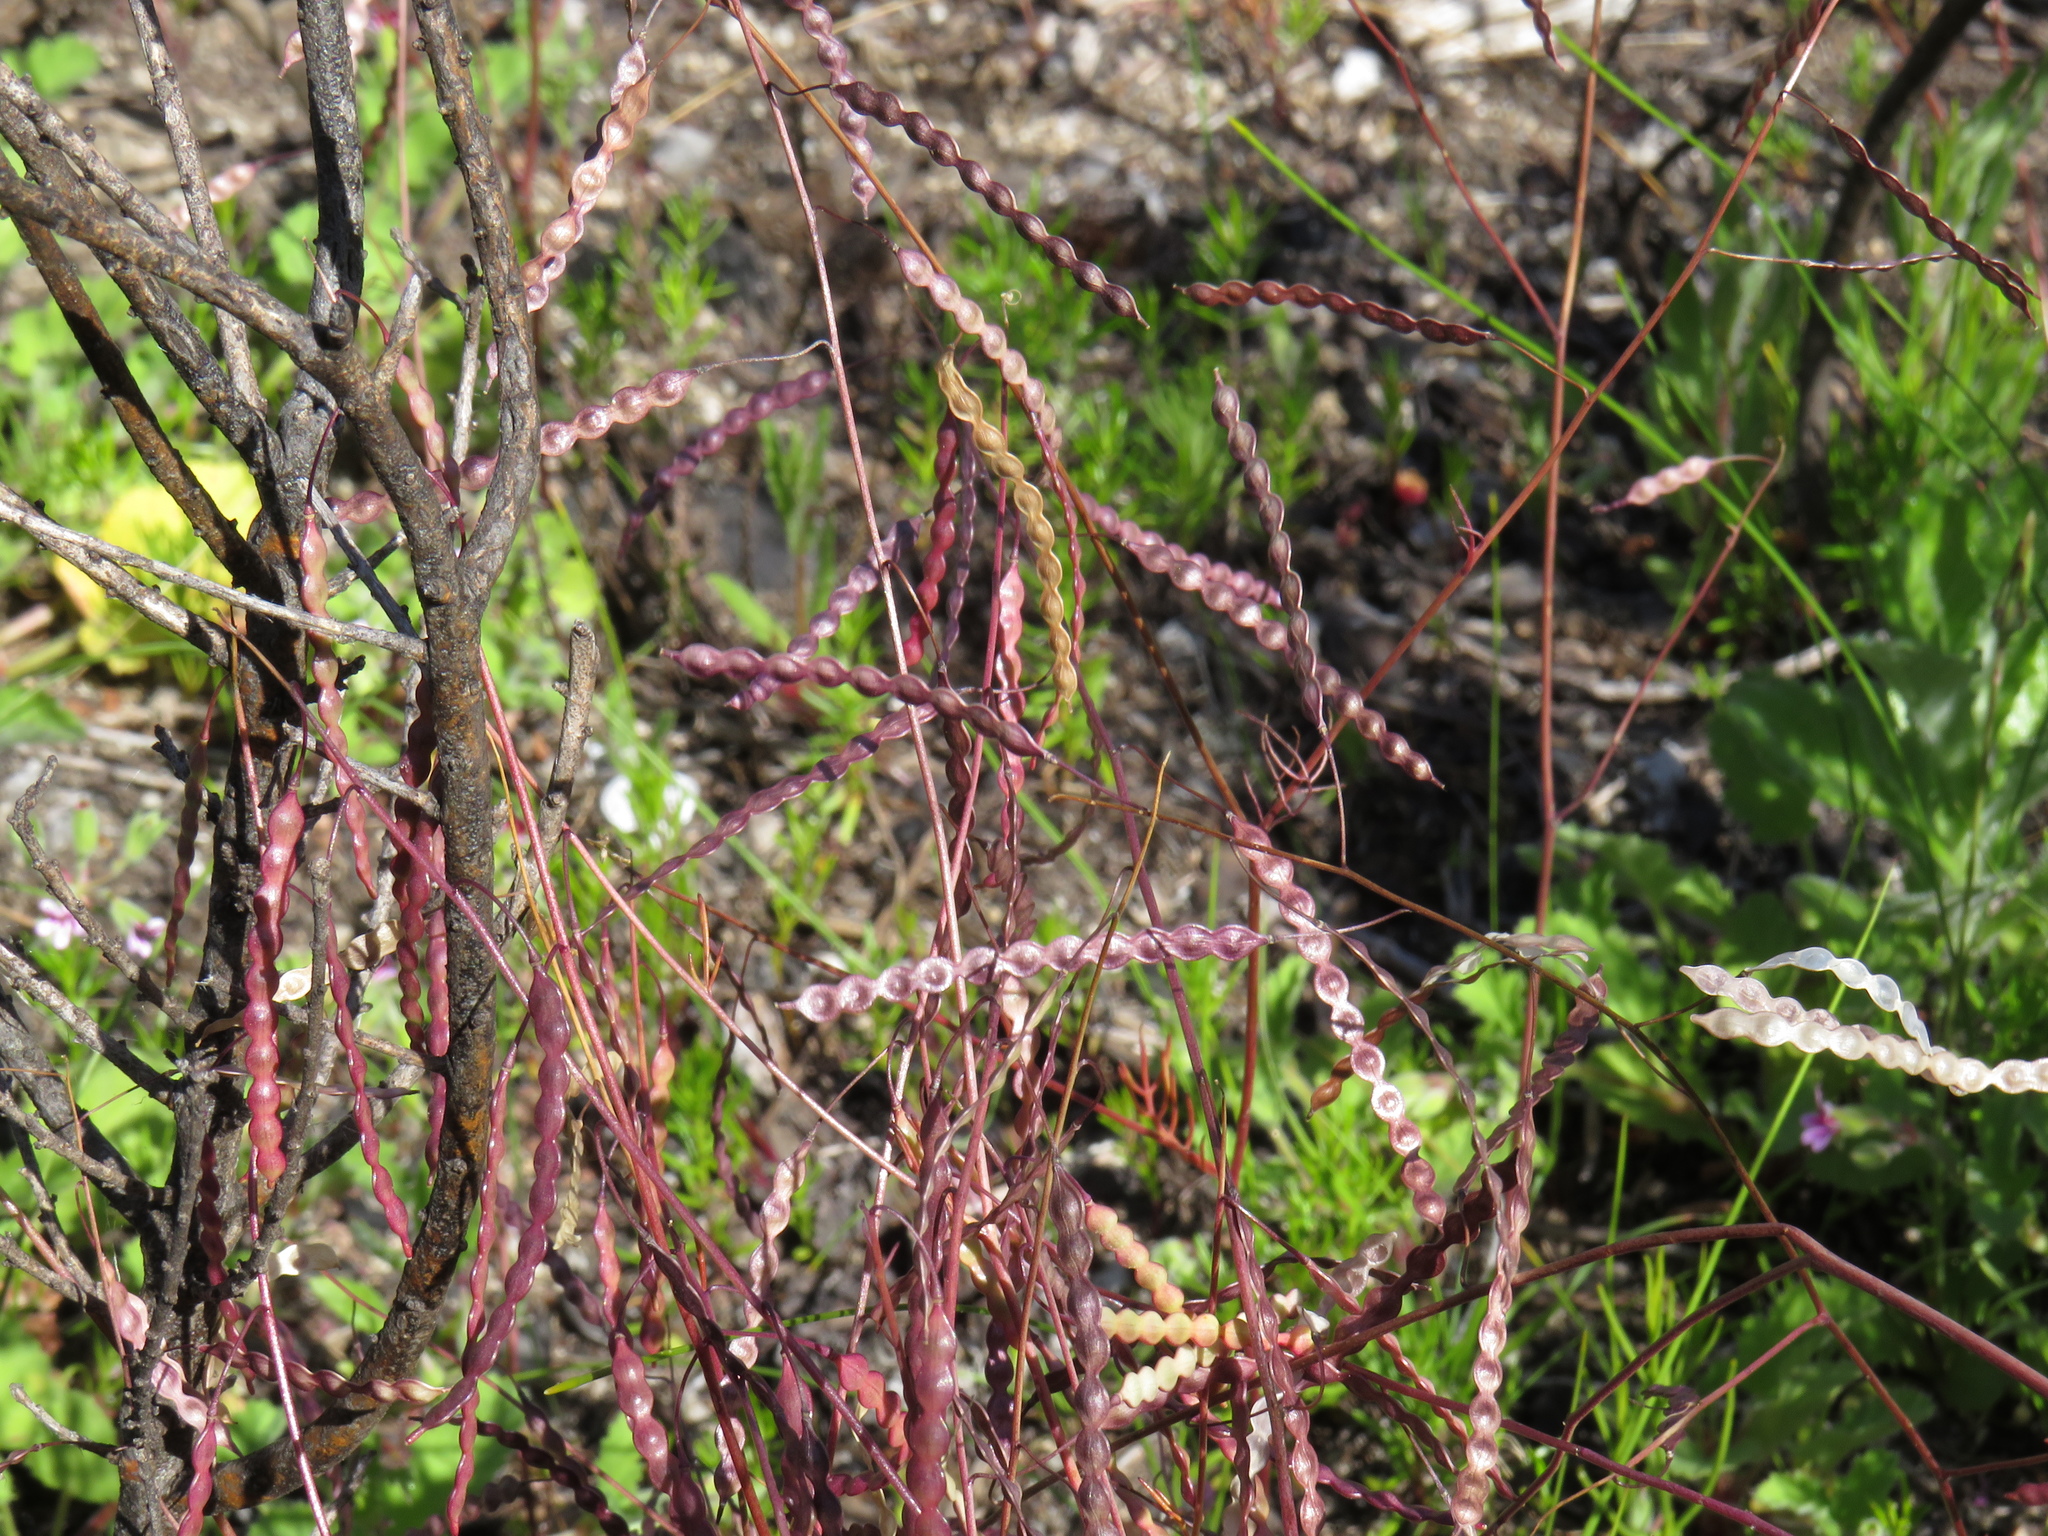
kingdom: Plantae
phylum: Tracheophyta
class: Magnoliopsida
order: Brassicales
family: Brassicaceae
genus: Heliophila
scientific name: Heliophila pendula
